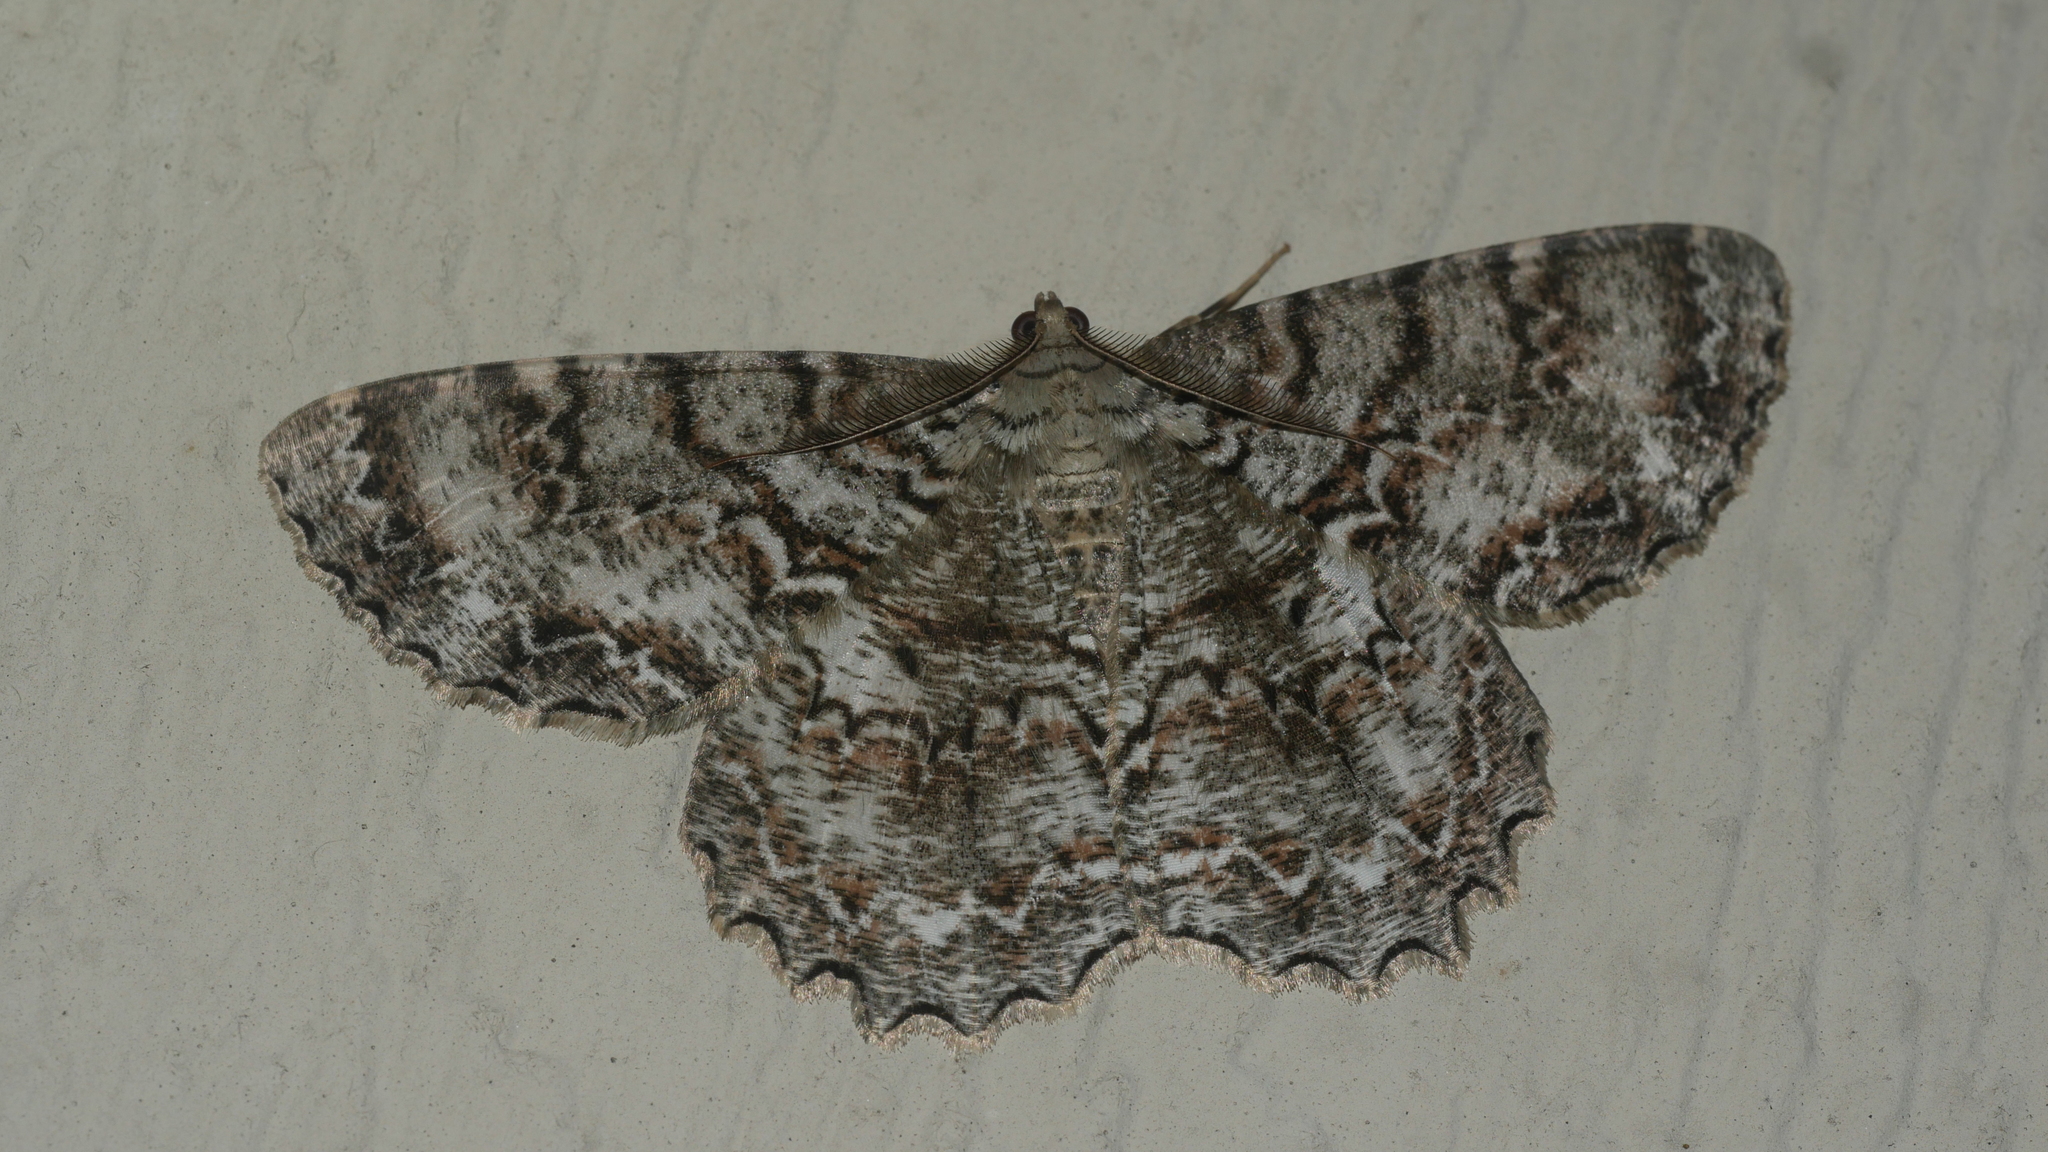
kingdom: Animalia
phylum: Arthropoda
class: Insecta
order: Lepidoptera
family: Geometridae
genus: Epimecis
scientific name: Epimecis hortaria
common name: Tulip-tree beauty
